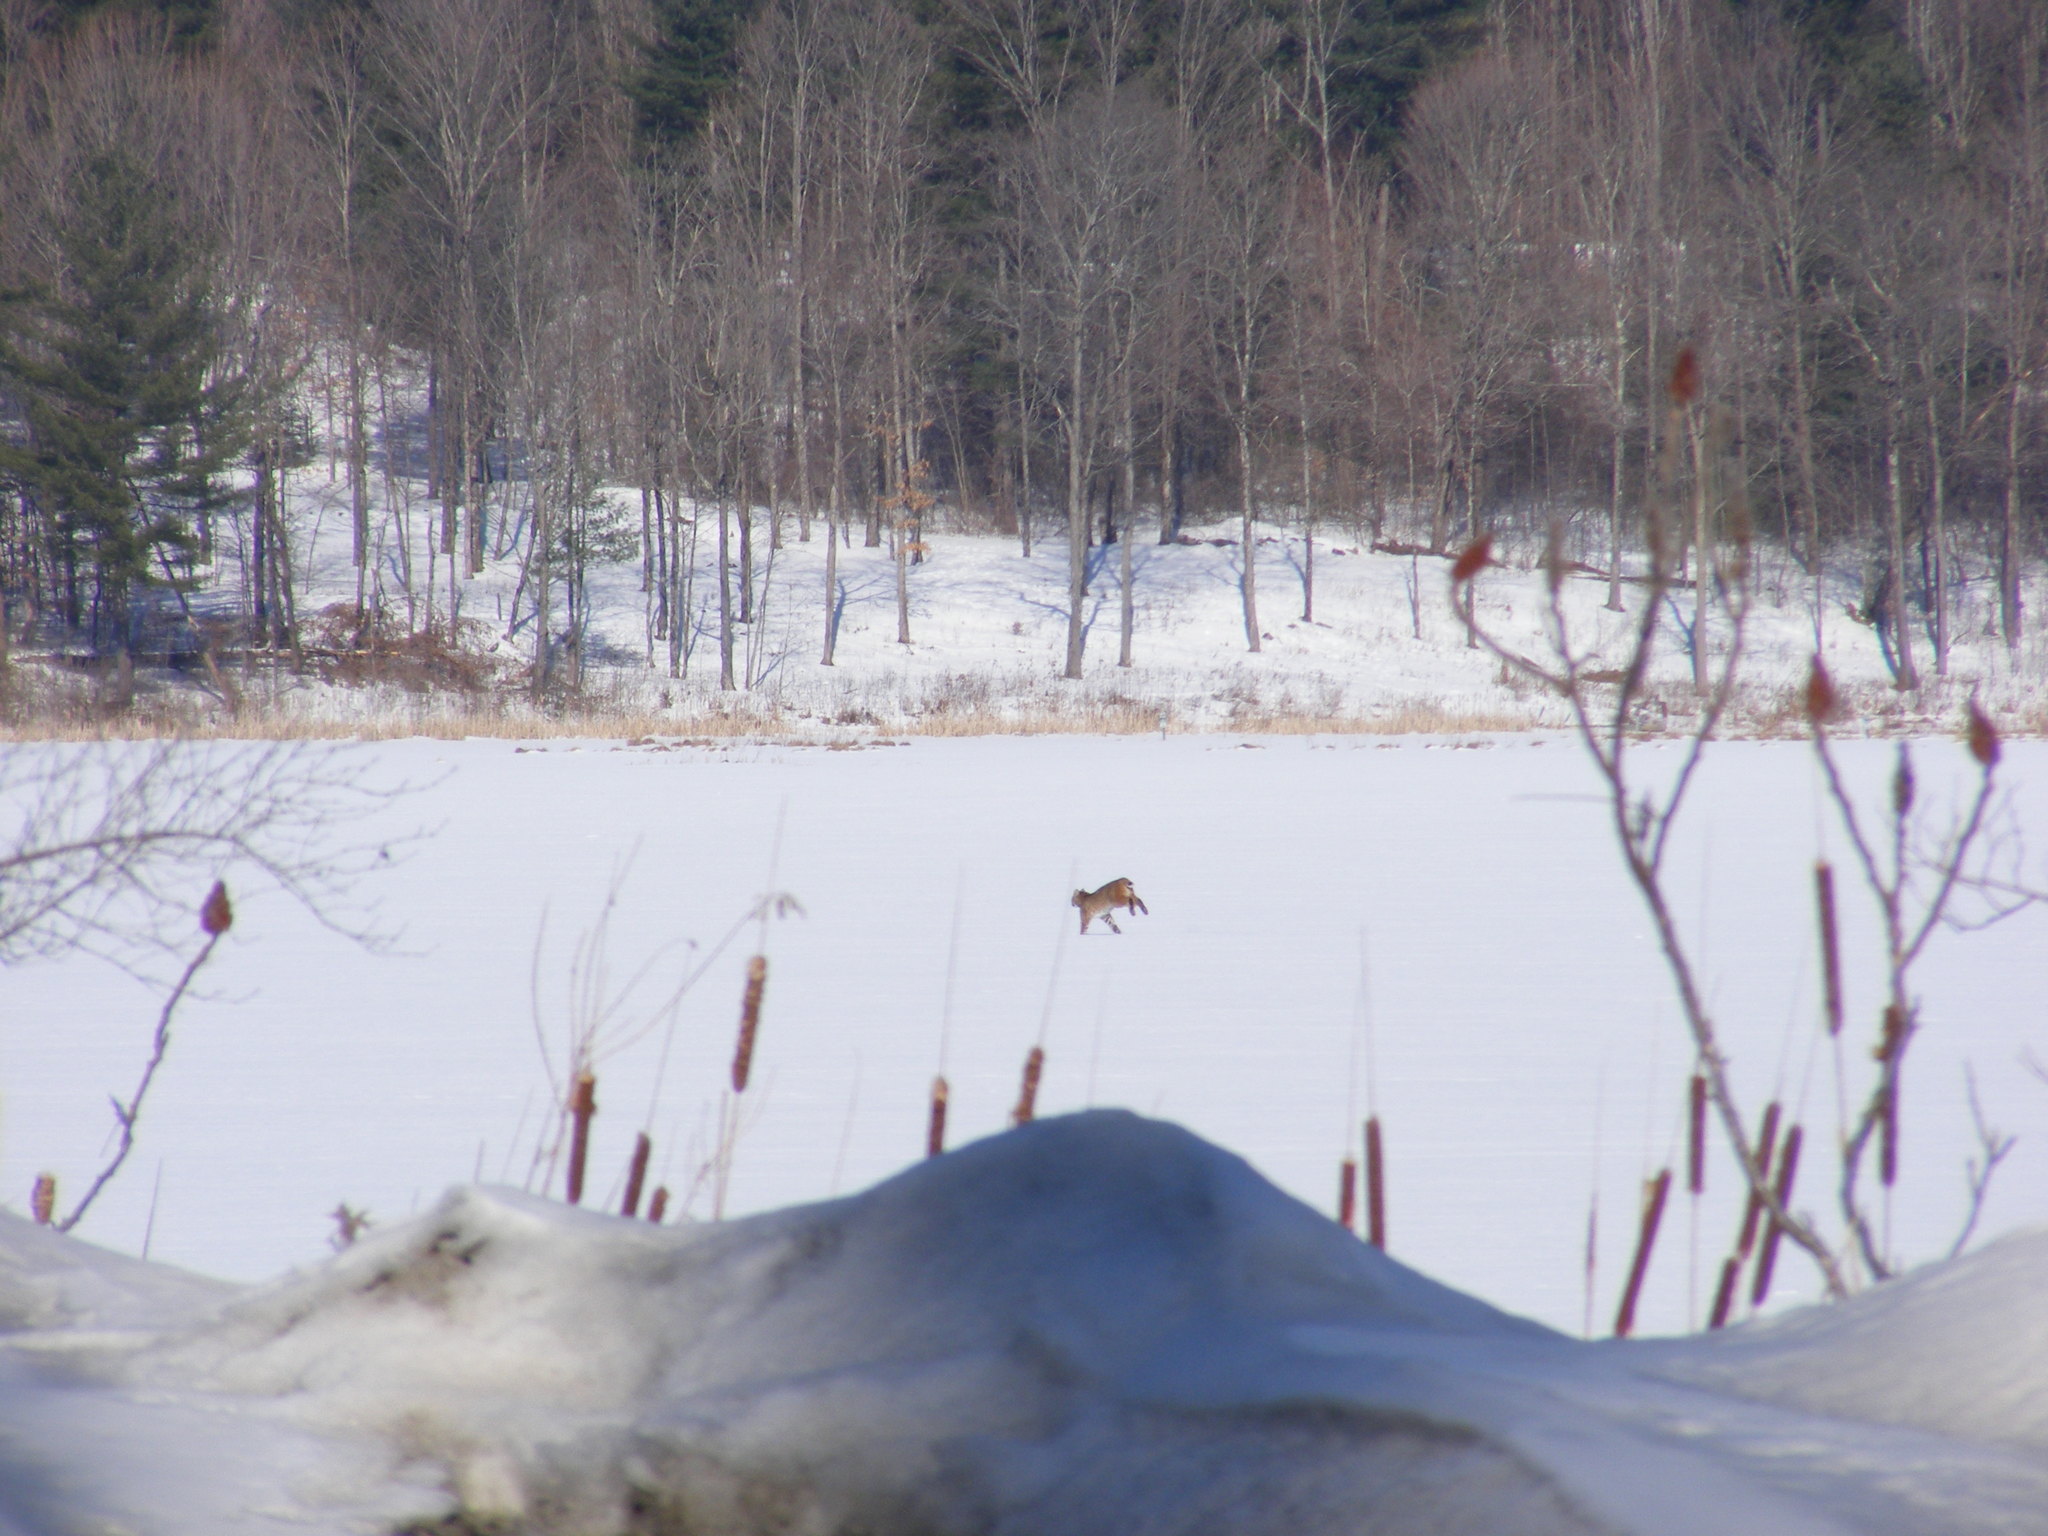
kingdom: Animalia
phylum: Chordata
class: Mammalia
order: Carnivora
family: Felidae
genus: Lynx
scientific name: Lynx rufus
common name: Bobcat
